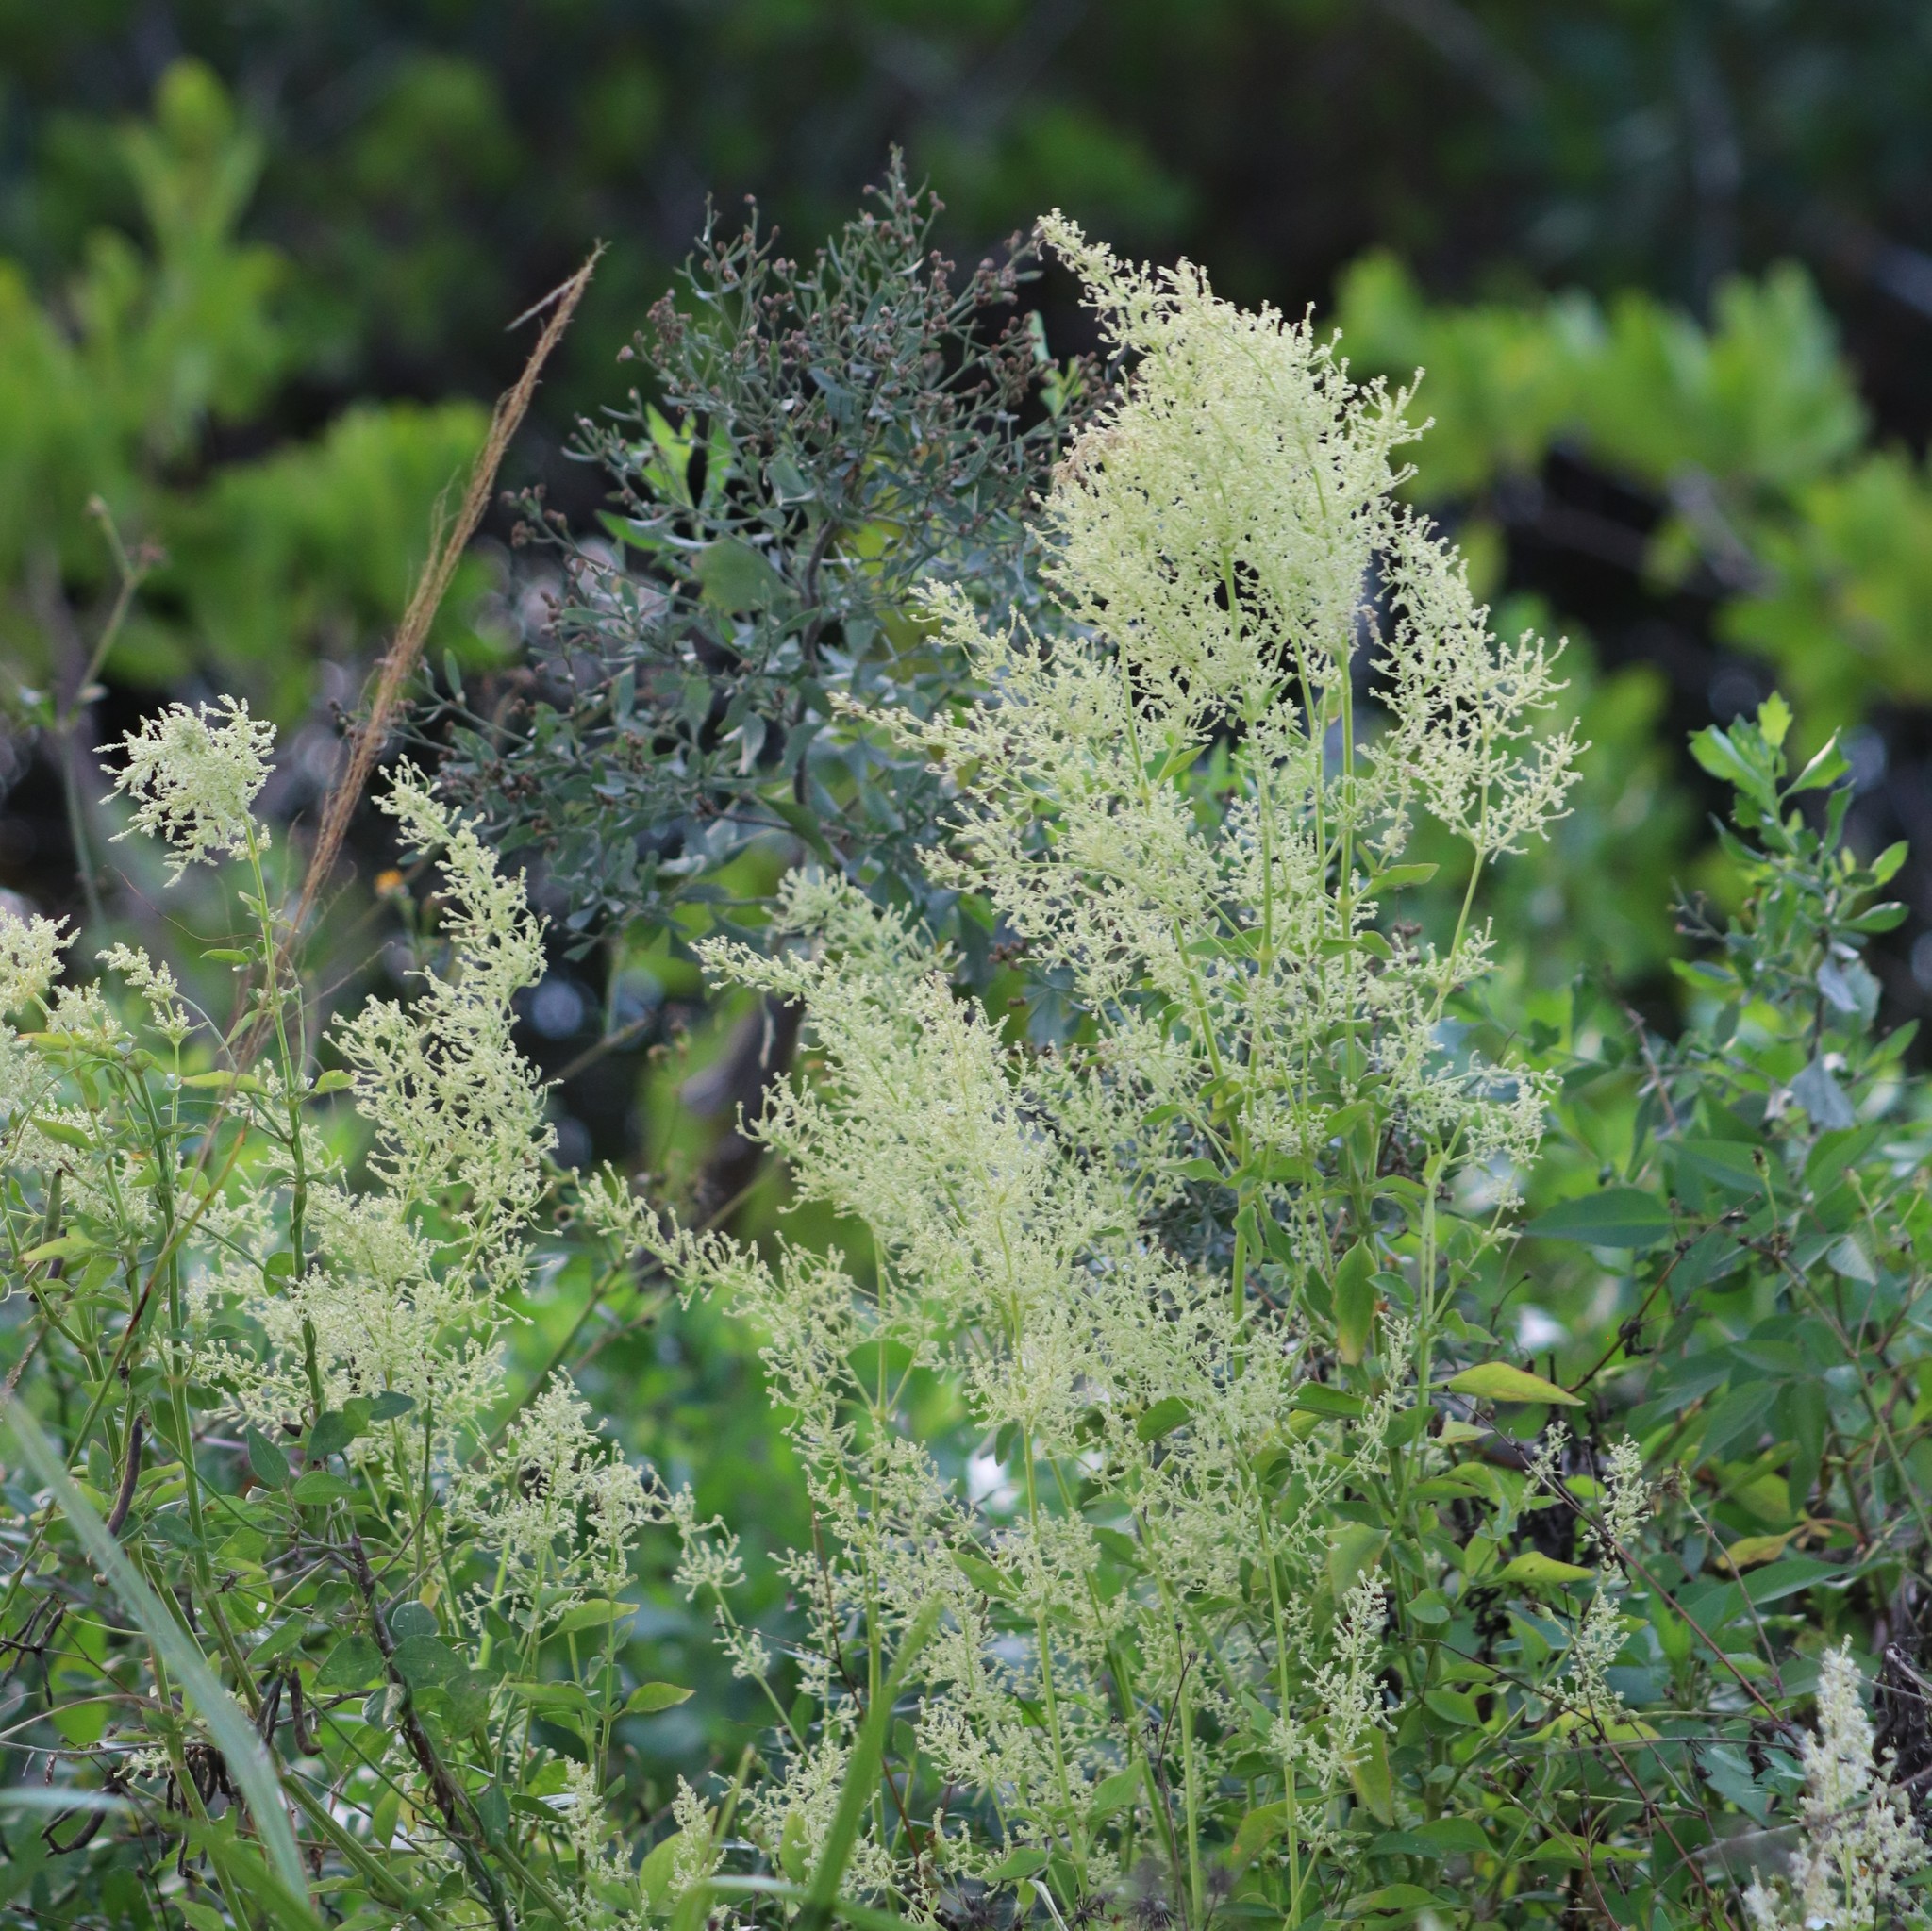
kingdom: Plantae
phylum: Tracheophyta
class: Magnoliopsida
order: Caryophyllales
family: Amaranthaceae
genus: Iresine
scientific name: Iresine diffusa
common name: Juba's-bush
